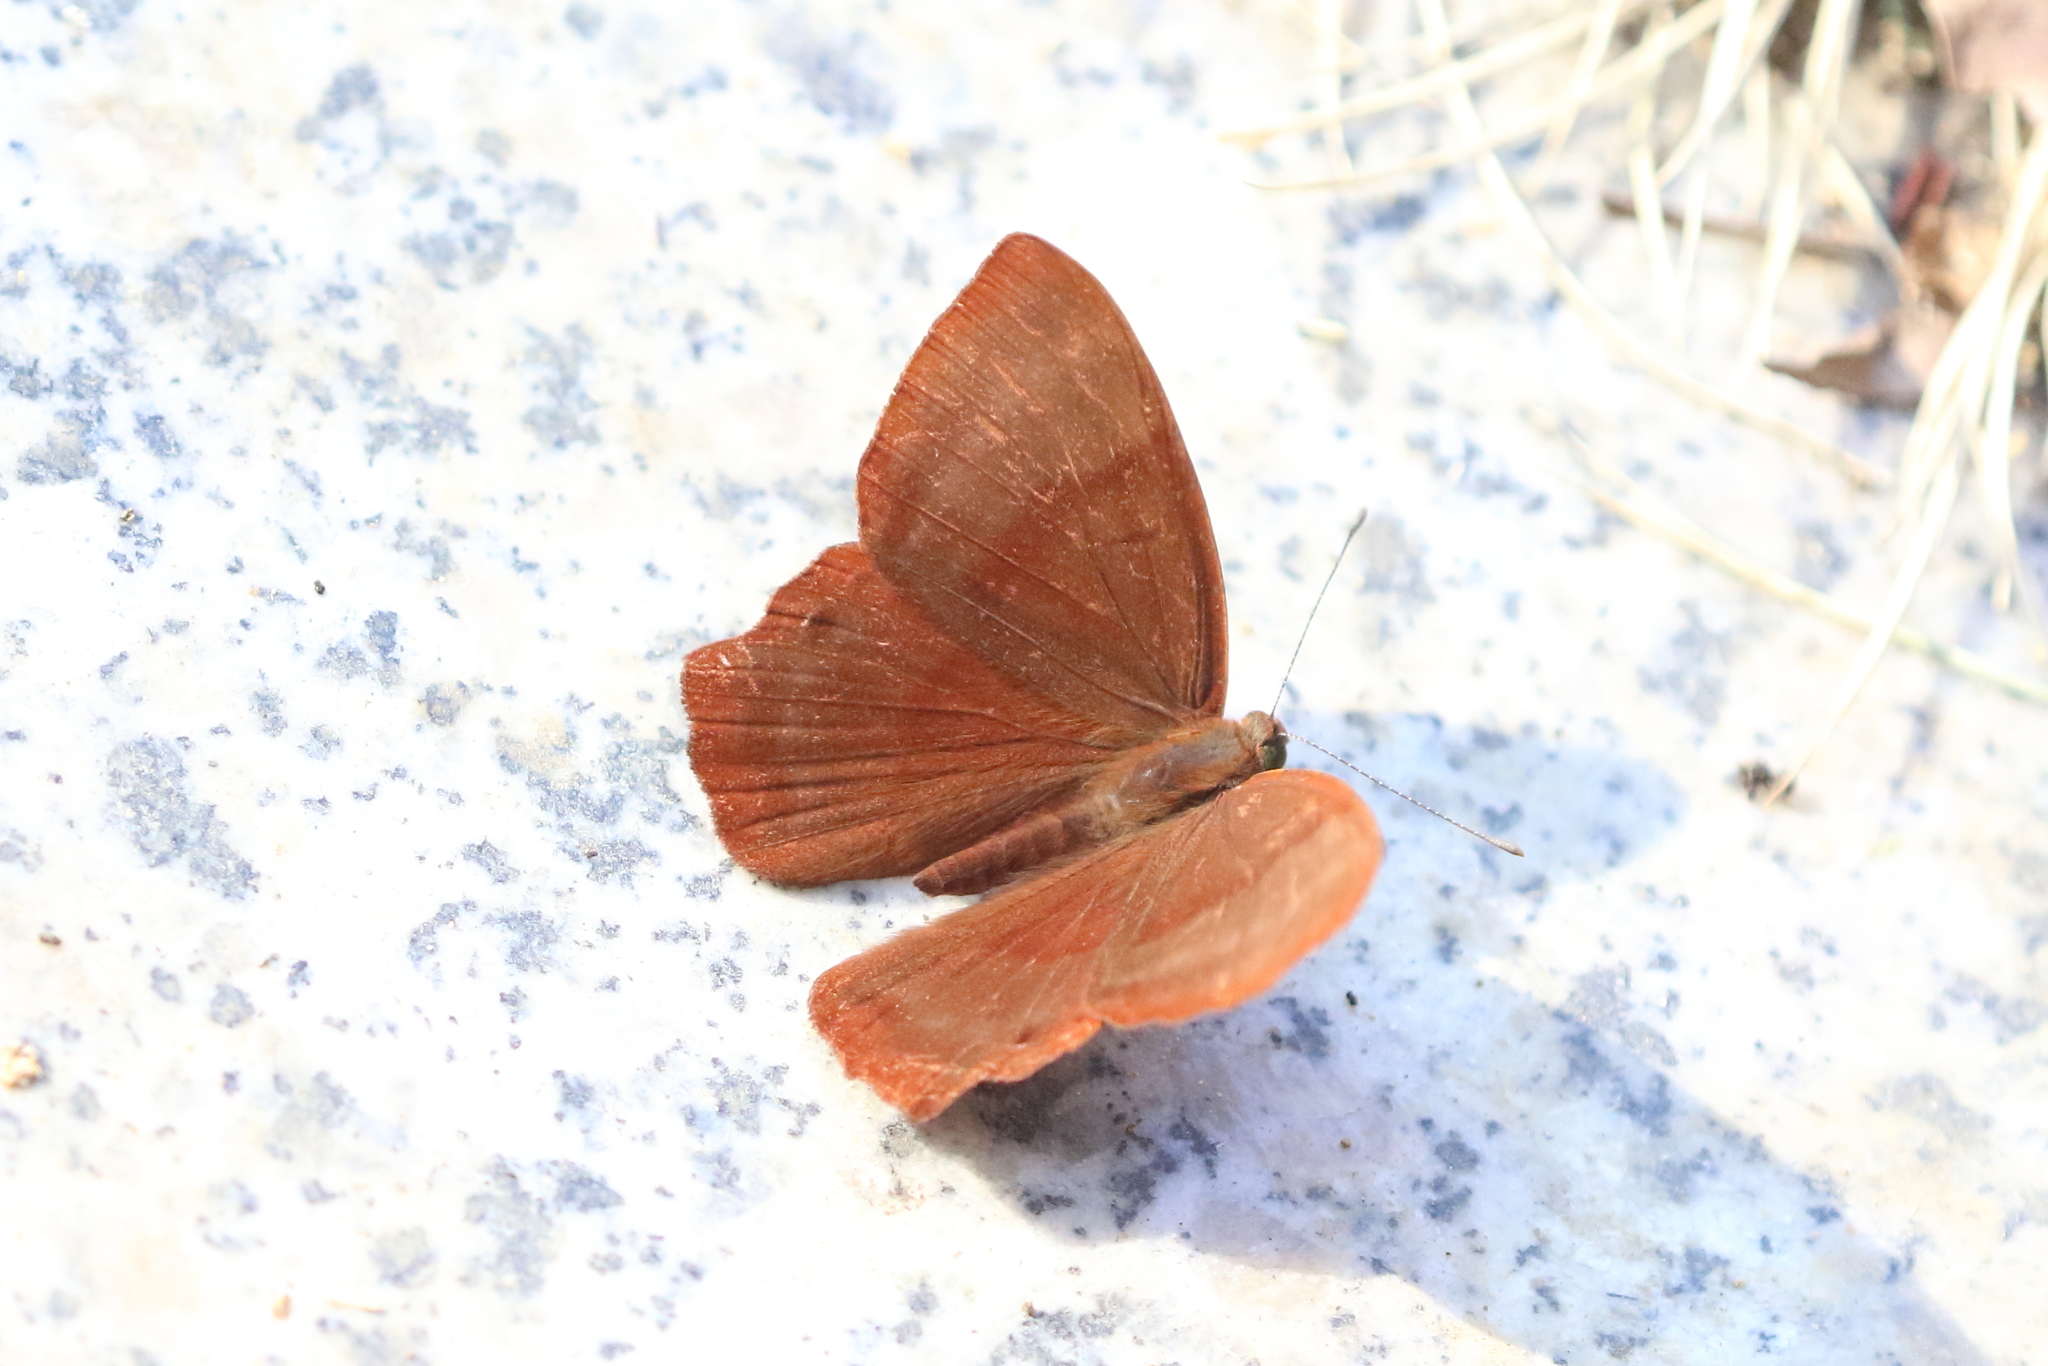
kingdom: Animalia
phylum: Arthropoda
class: Insecta
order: Lepidoptera
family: Lycaenidae
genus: Abisara
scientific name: Abisara echeria
